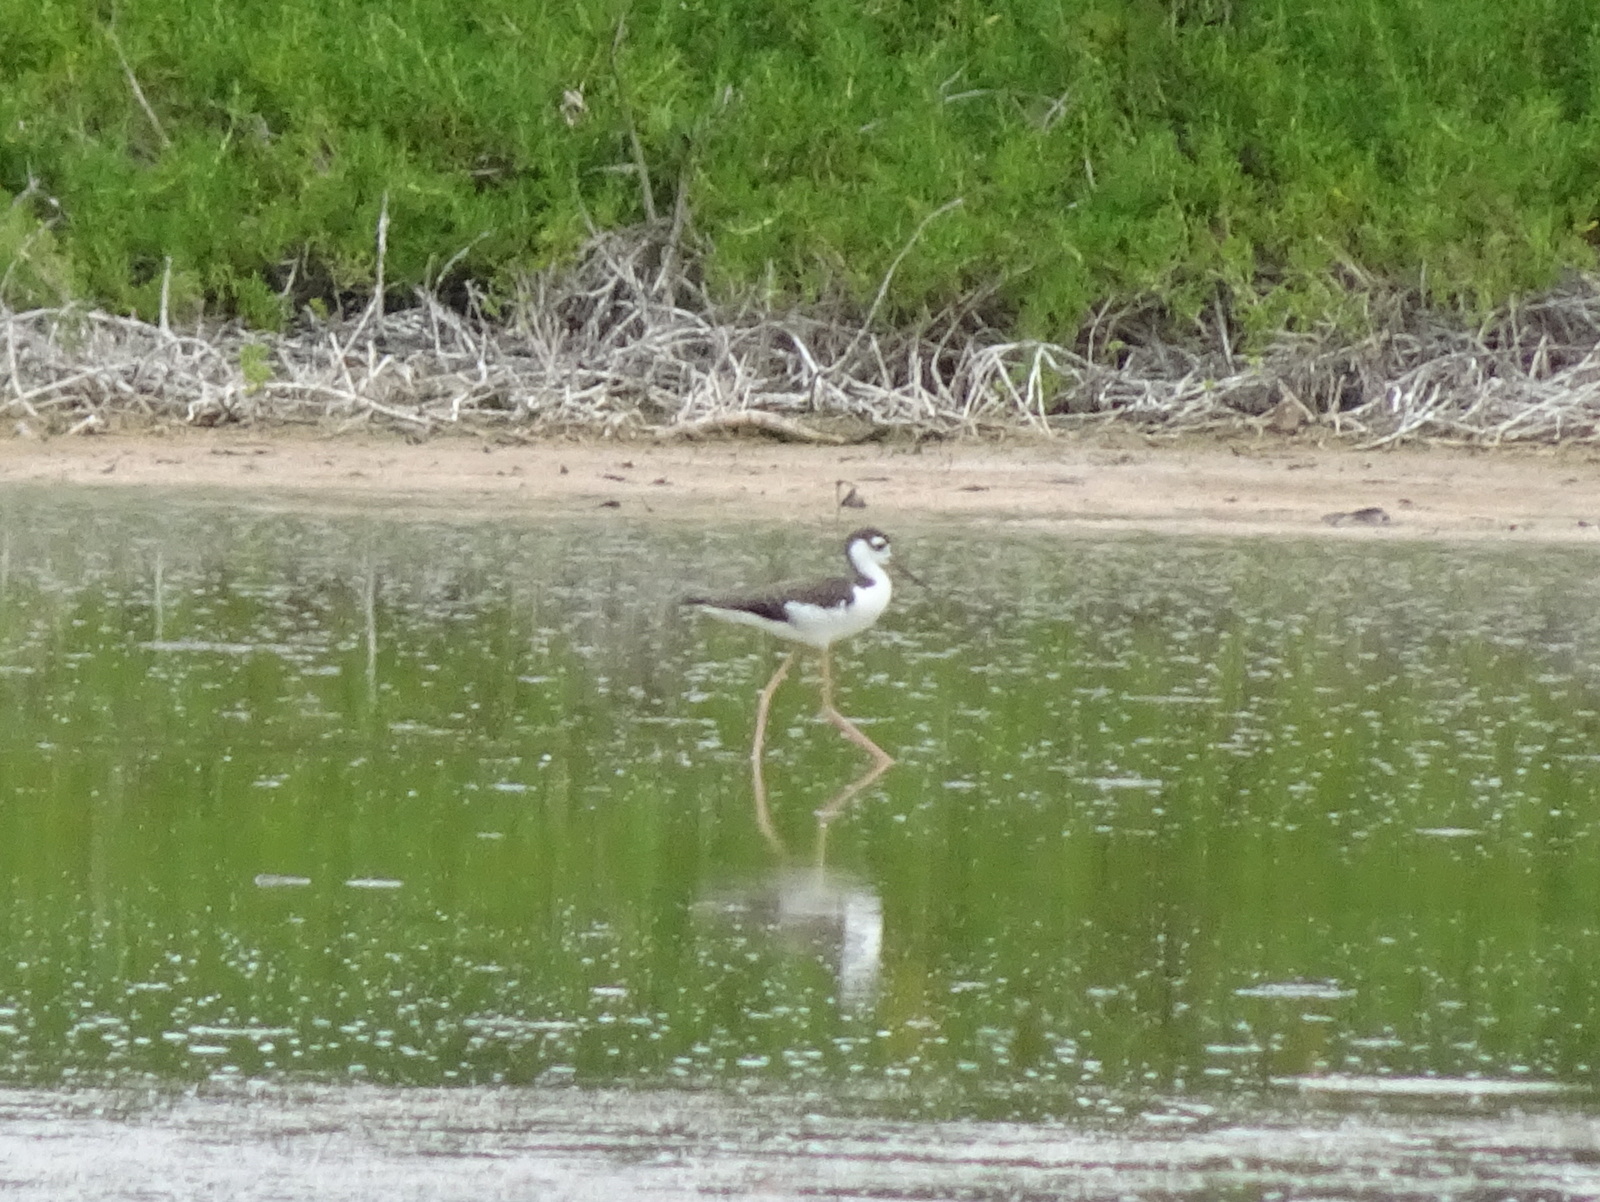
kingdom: Animalia
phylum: Chordata
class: Aves
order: Charadriiformes
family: Recurvirostridae
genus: Himantopus
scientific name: Himantopus mexicanus
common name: Black-necked stilt
